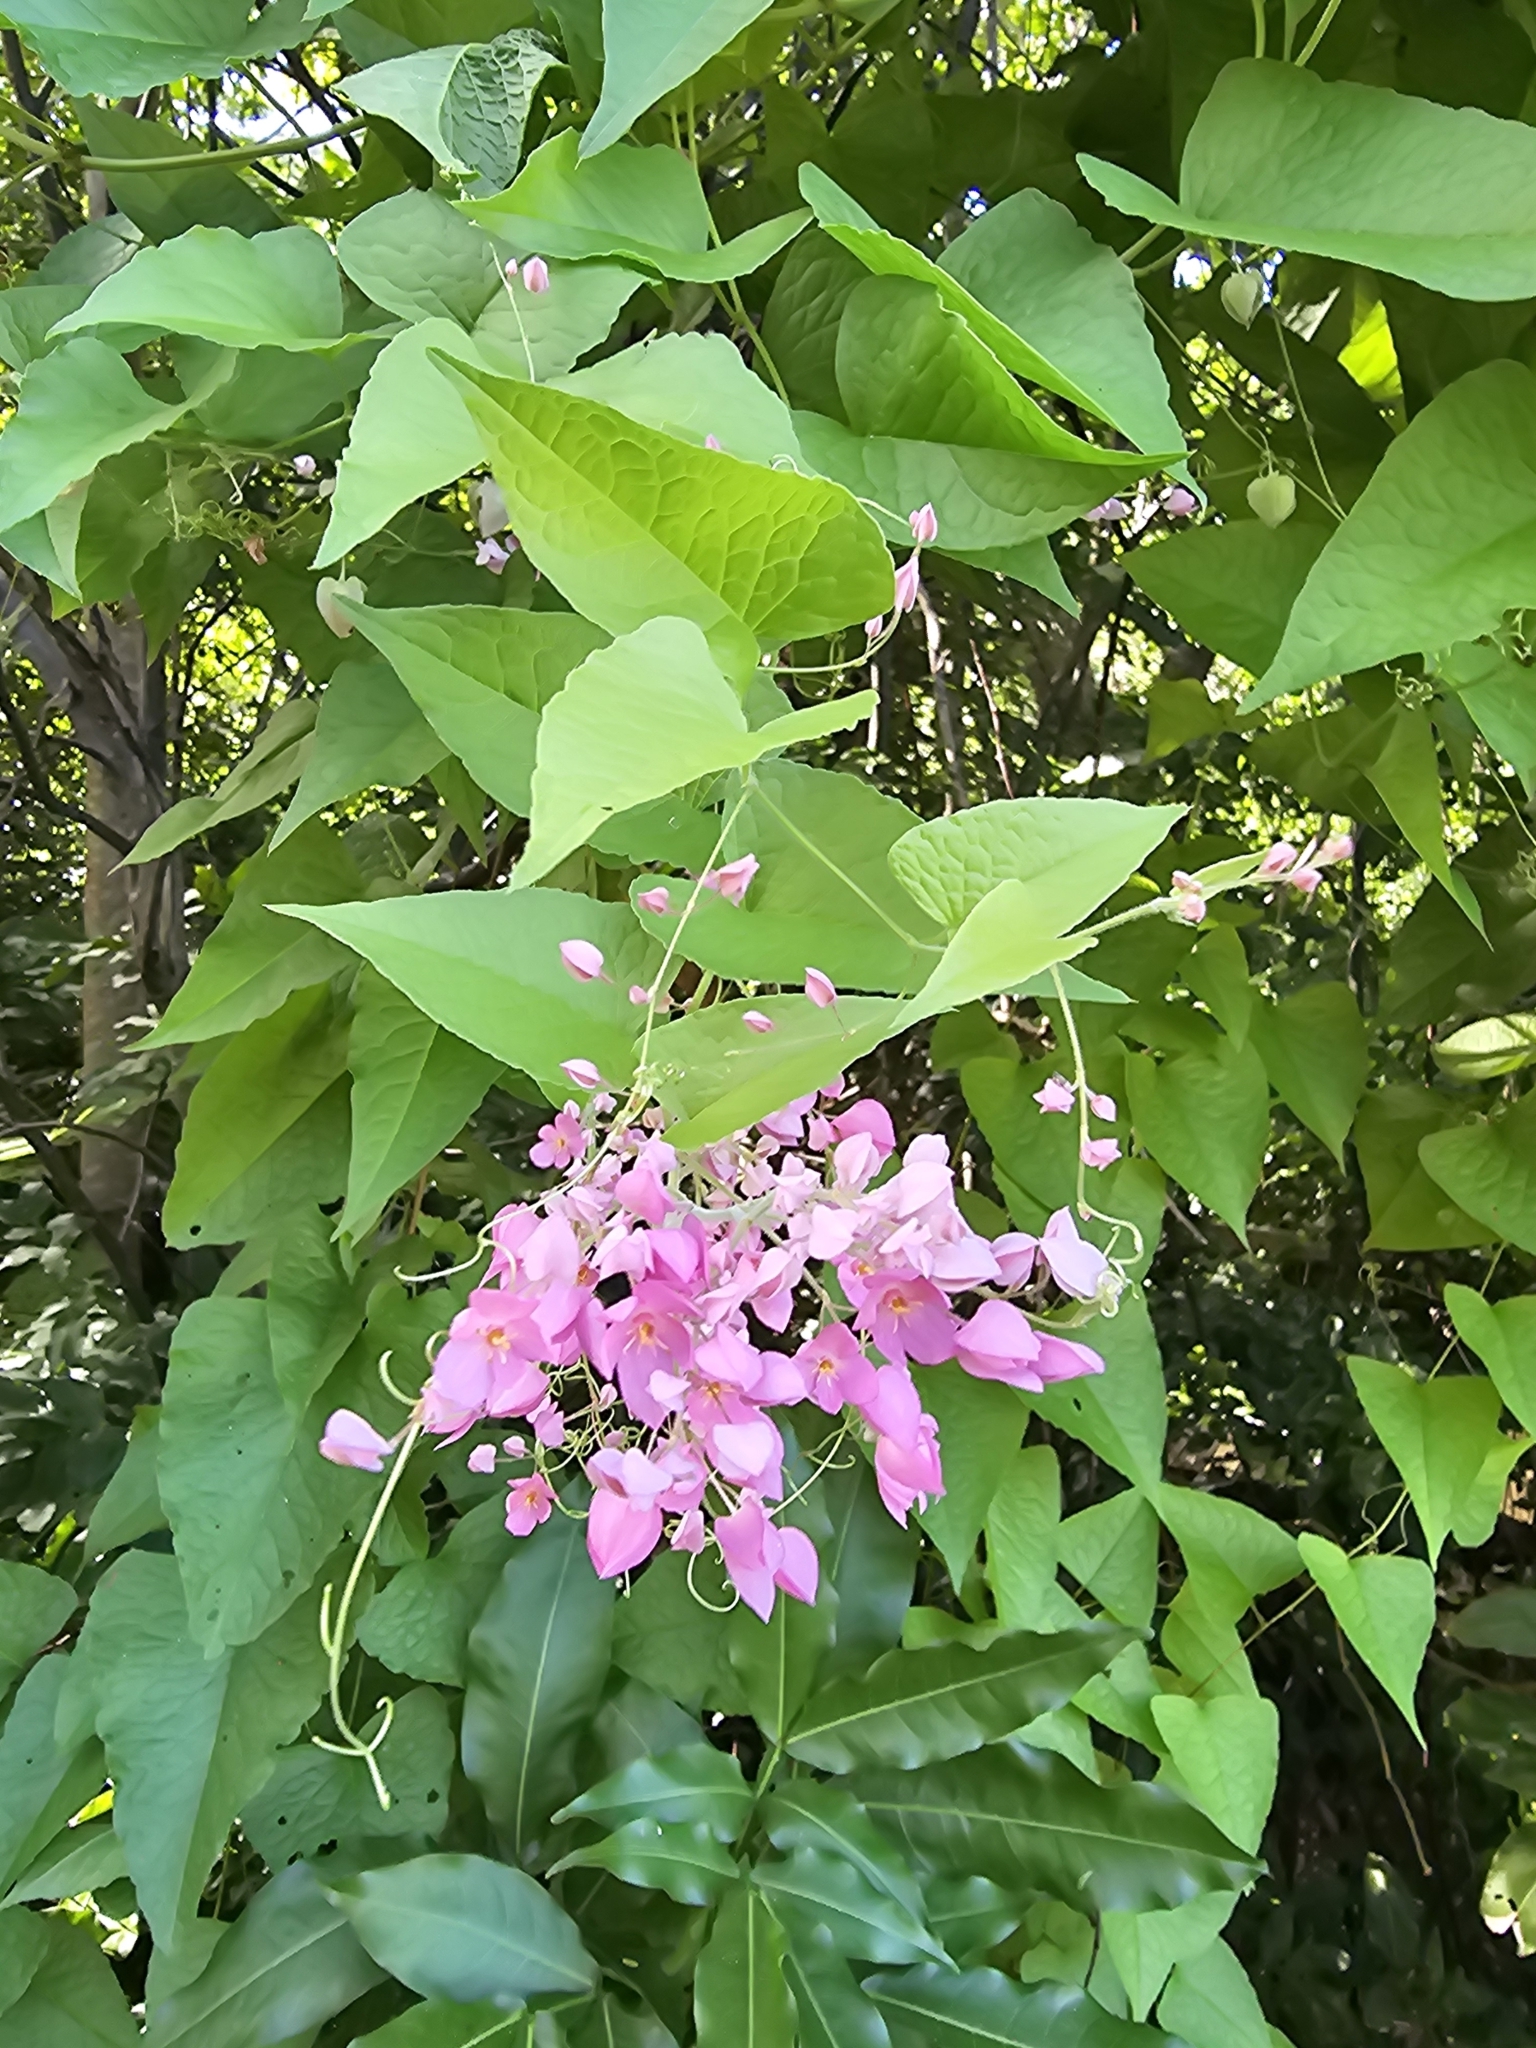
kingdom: Plantae
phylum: Tracheophyta
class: Magnoliopsida
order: Caryophyllales
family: Polygonaceae
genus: Antigonon
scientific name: Antigonon leptopus
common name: Coral vine
